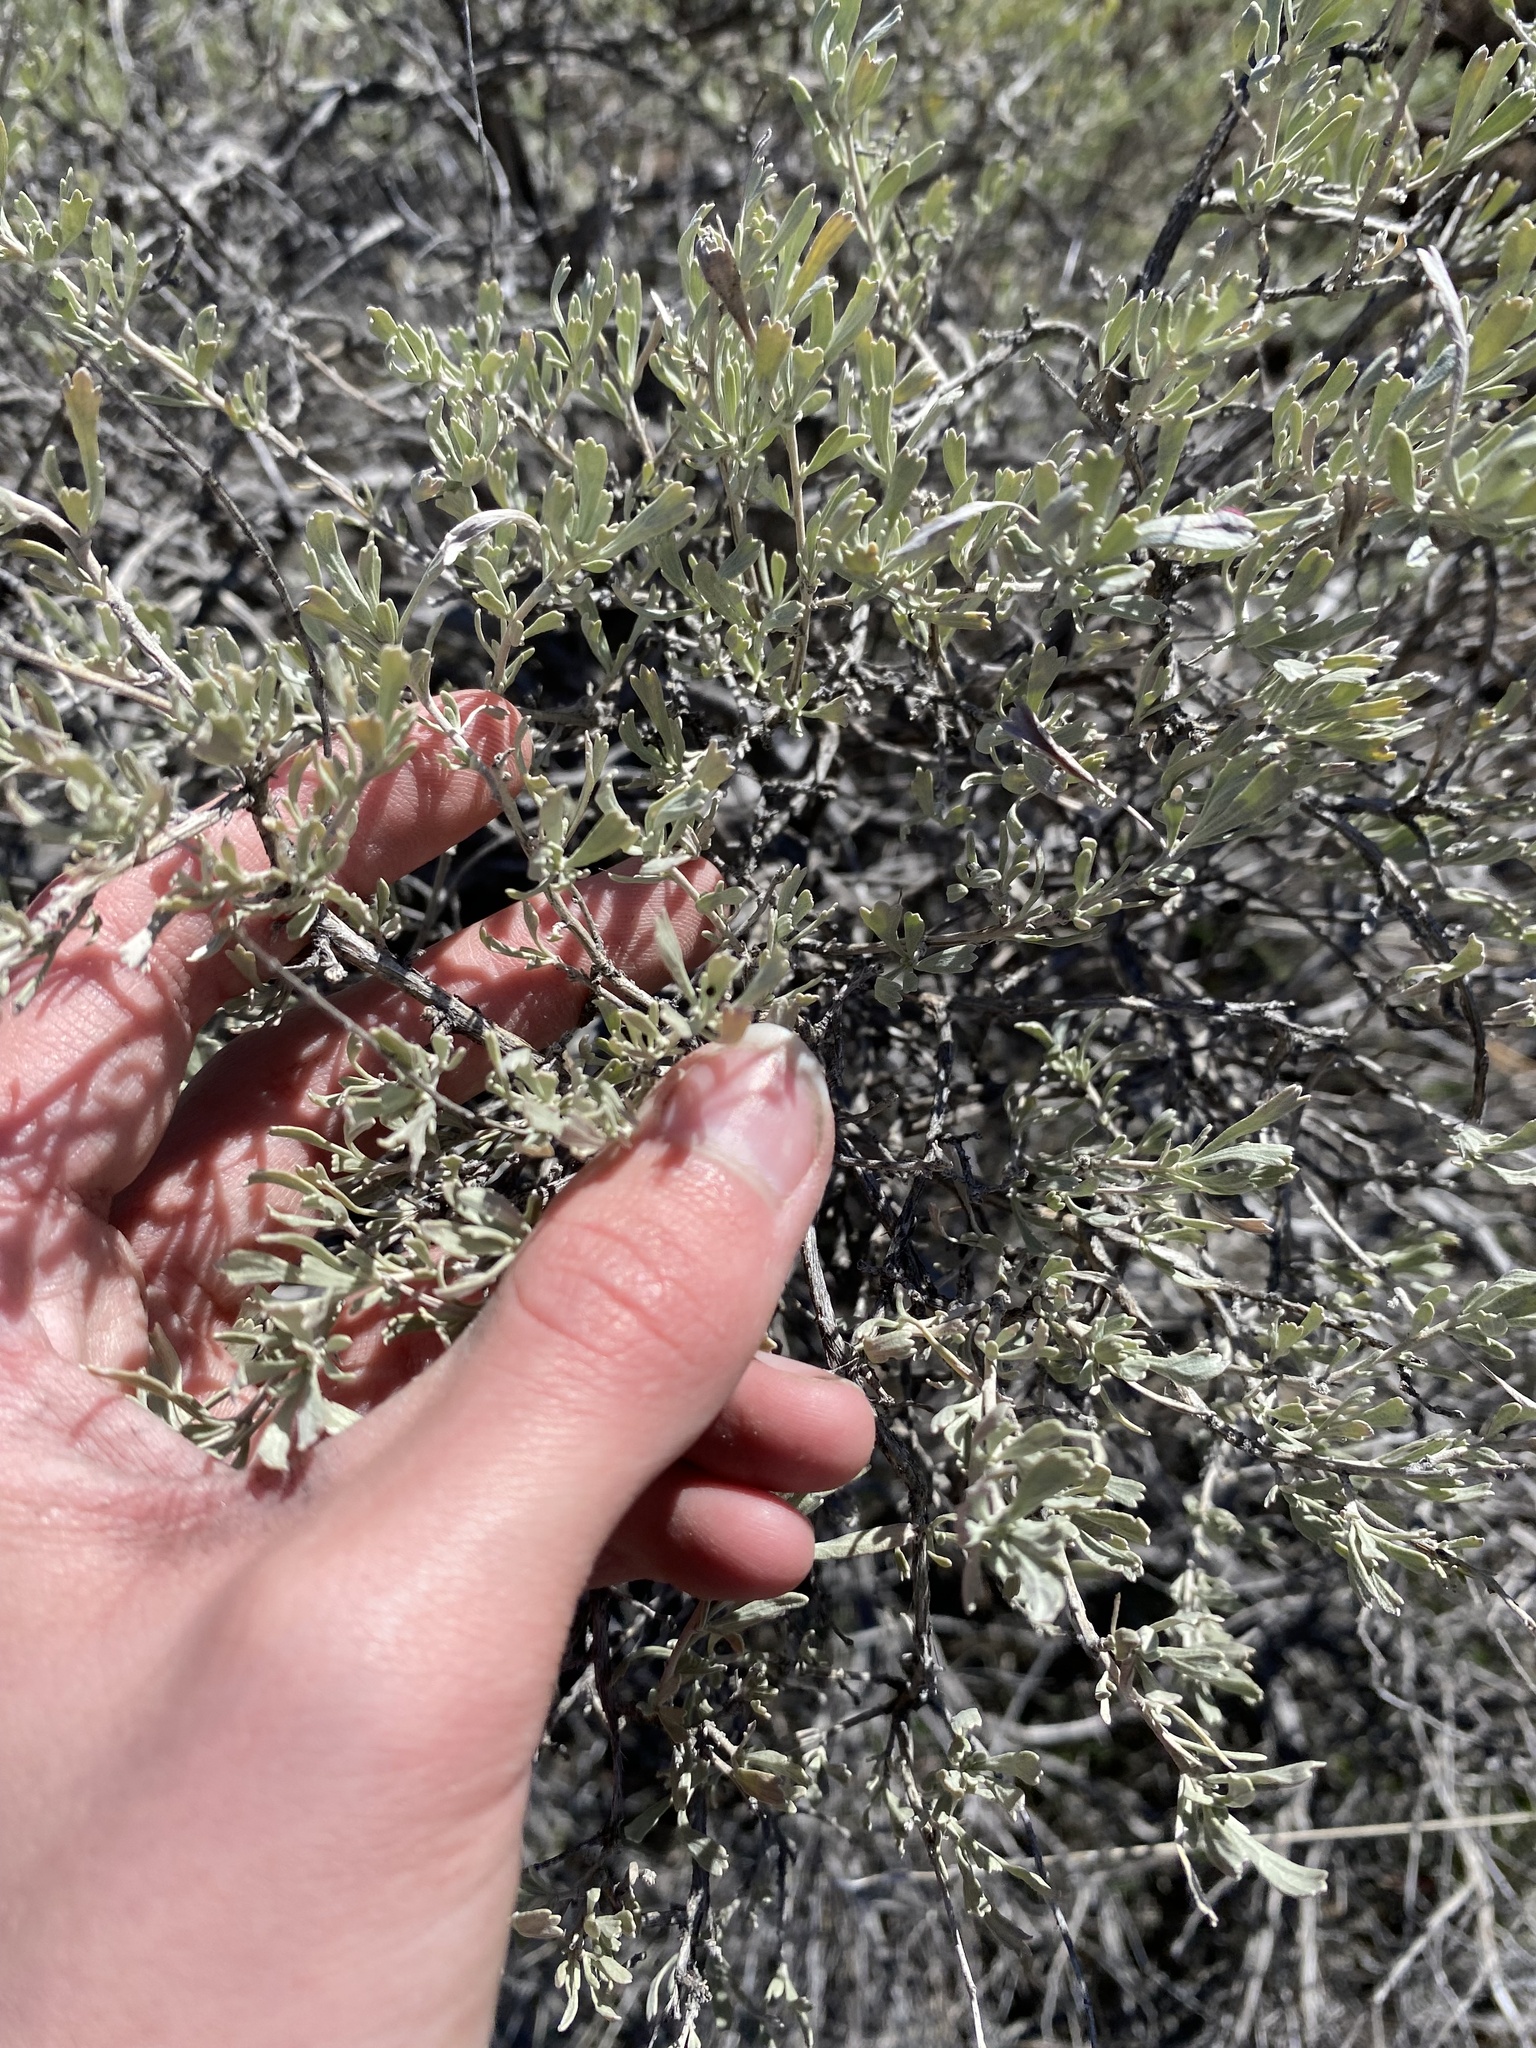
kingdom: Plantae
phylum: Tracheophyta
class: Magnoliopsida
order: Asterales
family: Asteraceae
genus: Artemisia
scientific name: Artemisia tridentata
